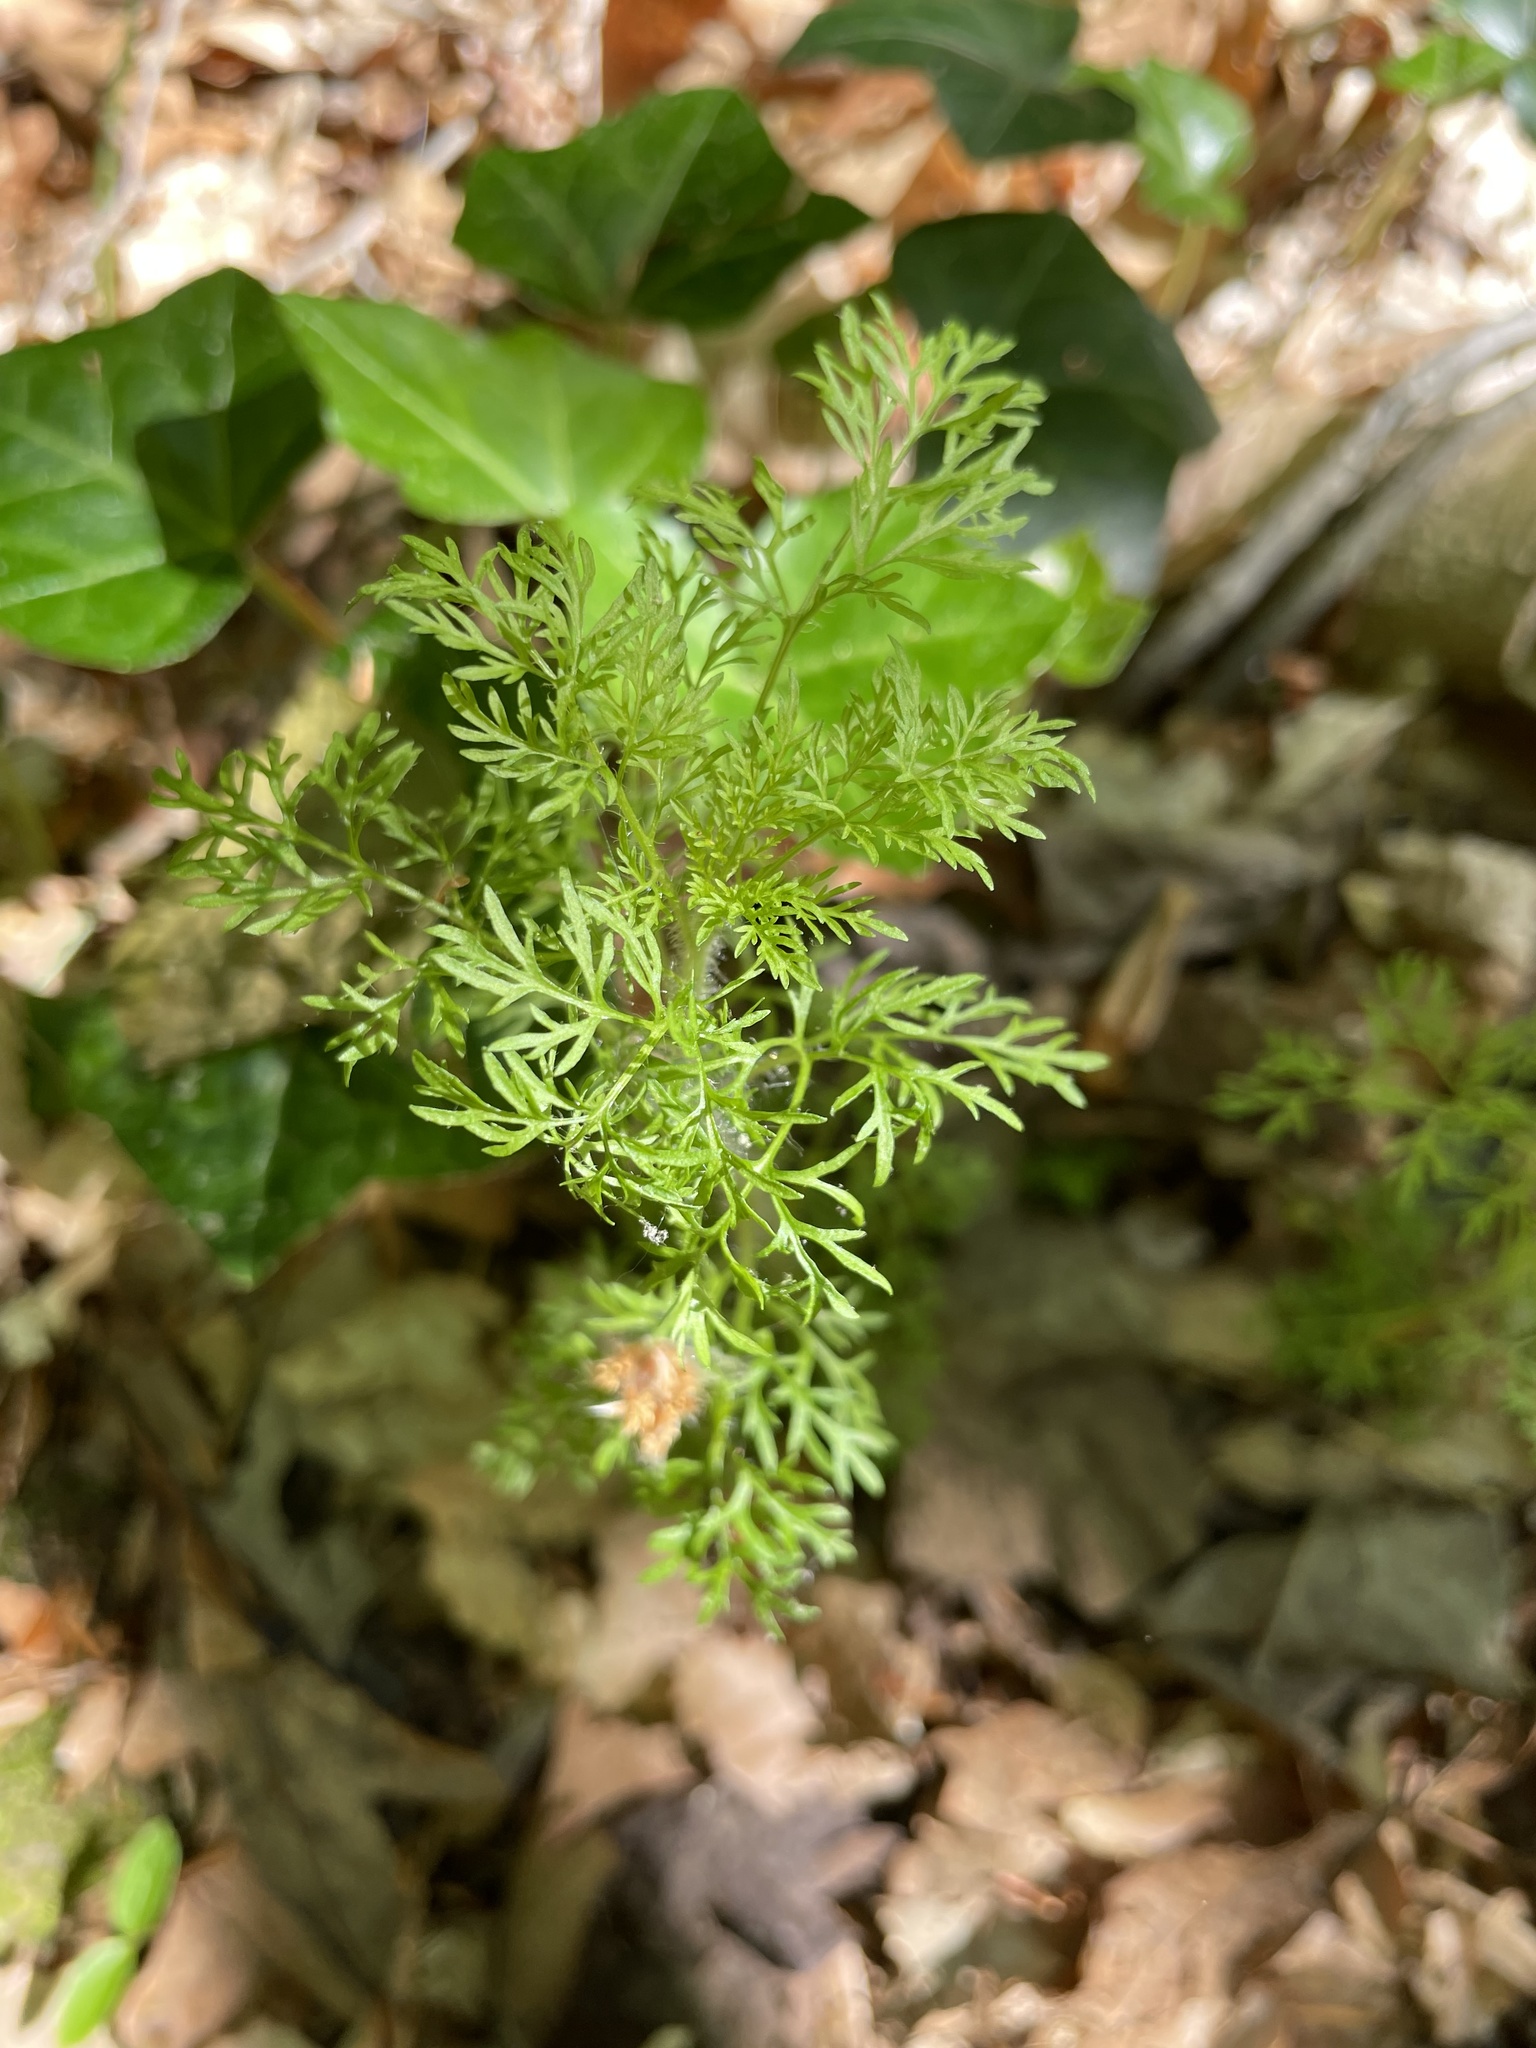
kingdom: Plantae
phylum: Tracheophyta
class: Magnoliopsida
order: Asterales
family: Asteraceae
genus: Eupatorium
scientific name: Eupatorium capillifolium
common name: Dog-fennel
